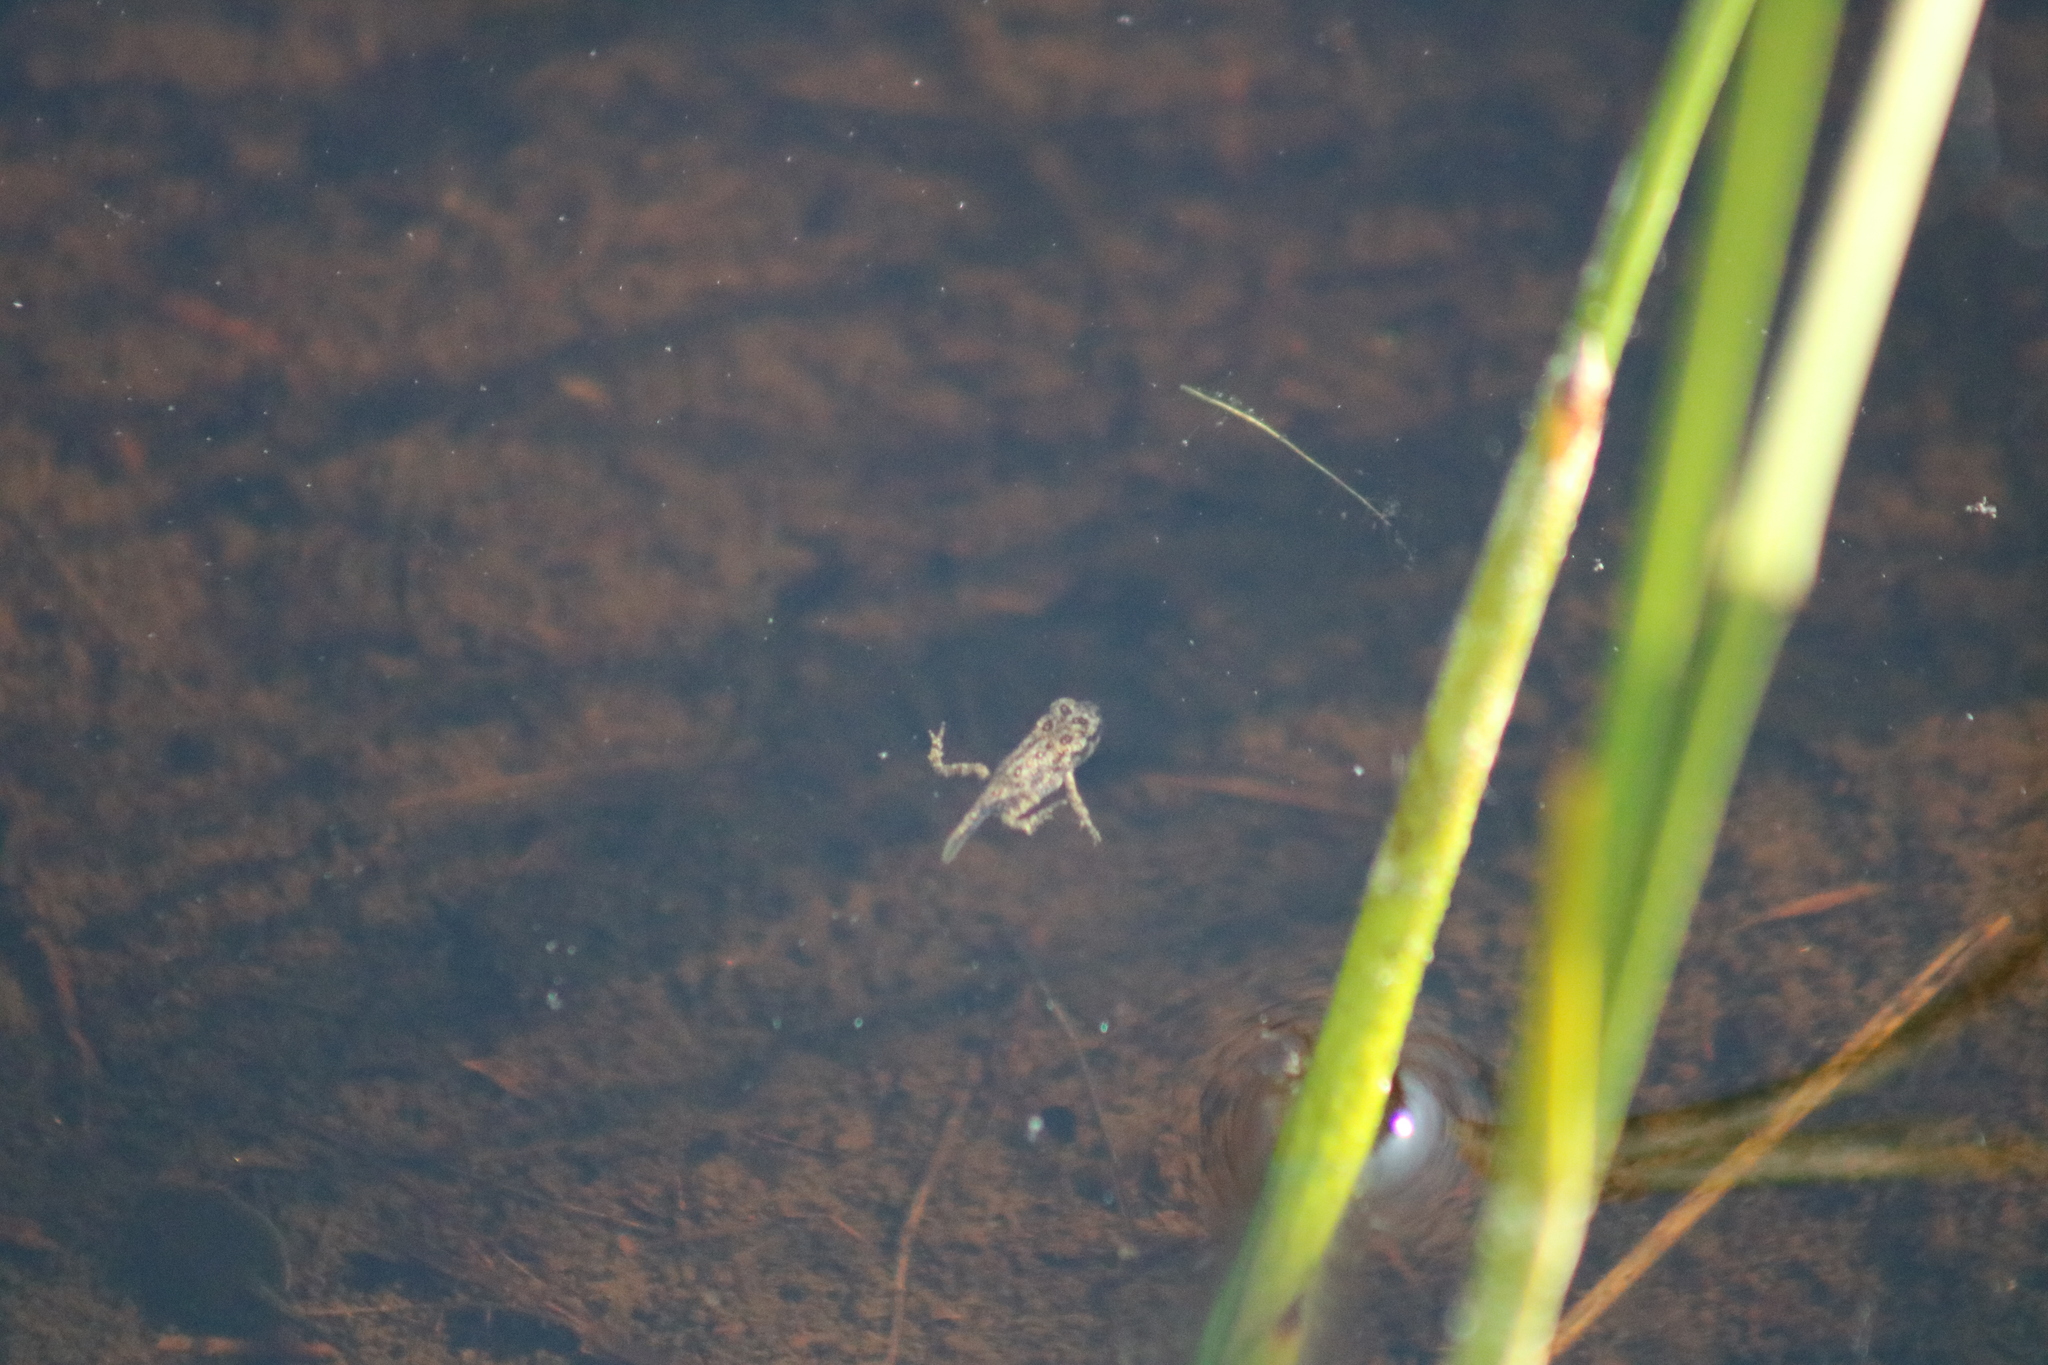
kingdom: Animalia
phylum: Chordata
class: Amphibia
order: Anura
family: Bufonidae
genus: Anaxyrus
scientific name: Anaxyrus americanus
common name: American toad
